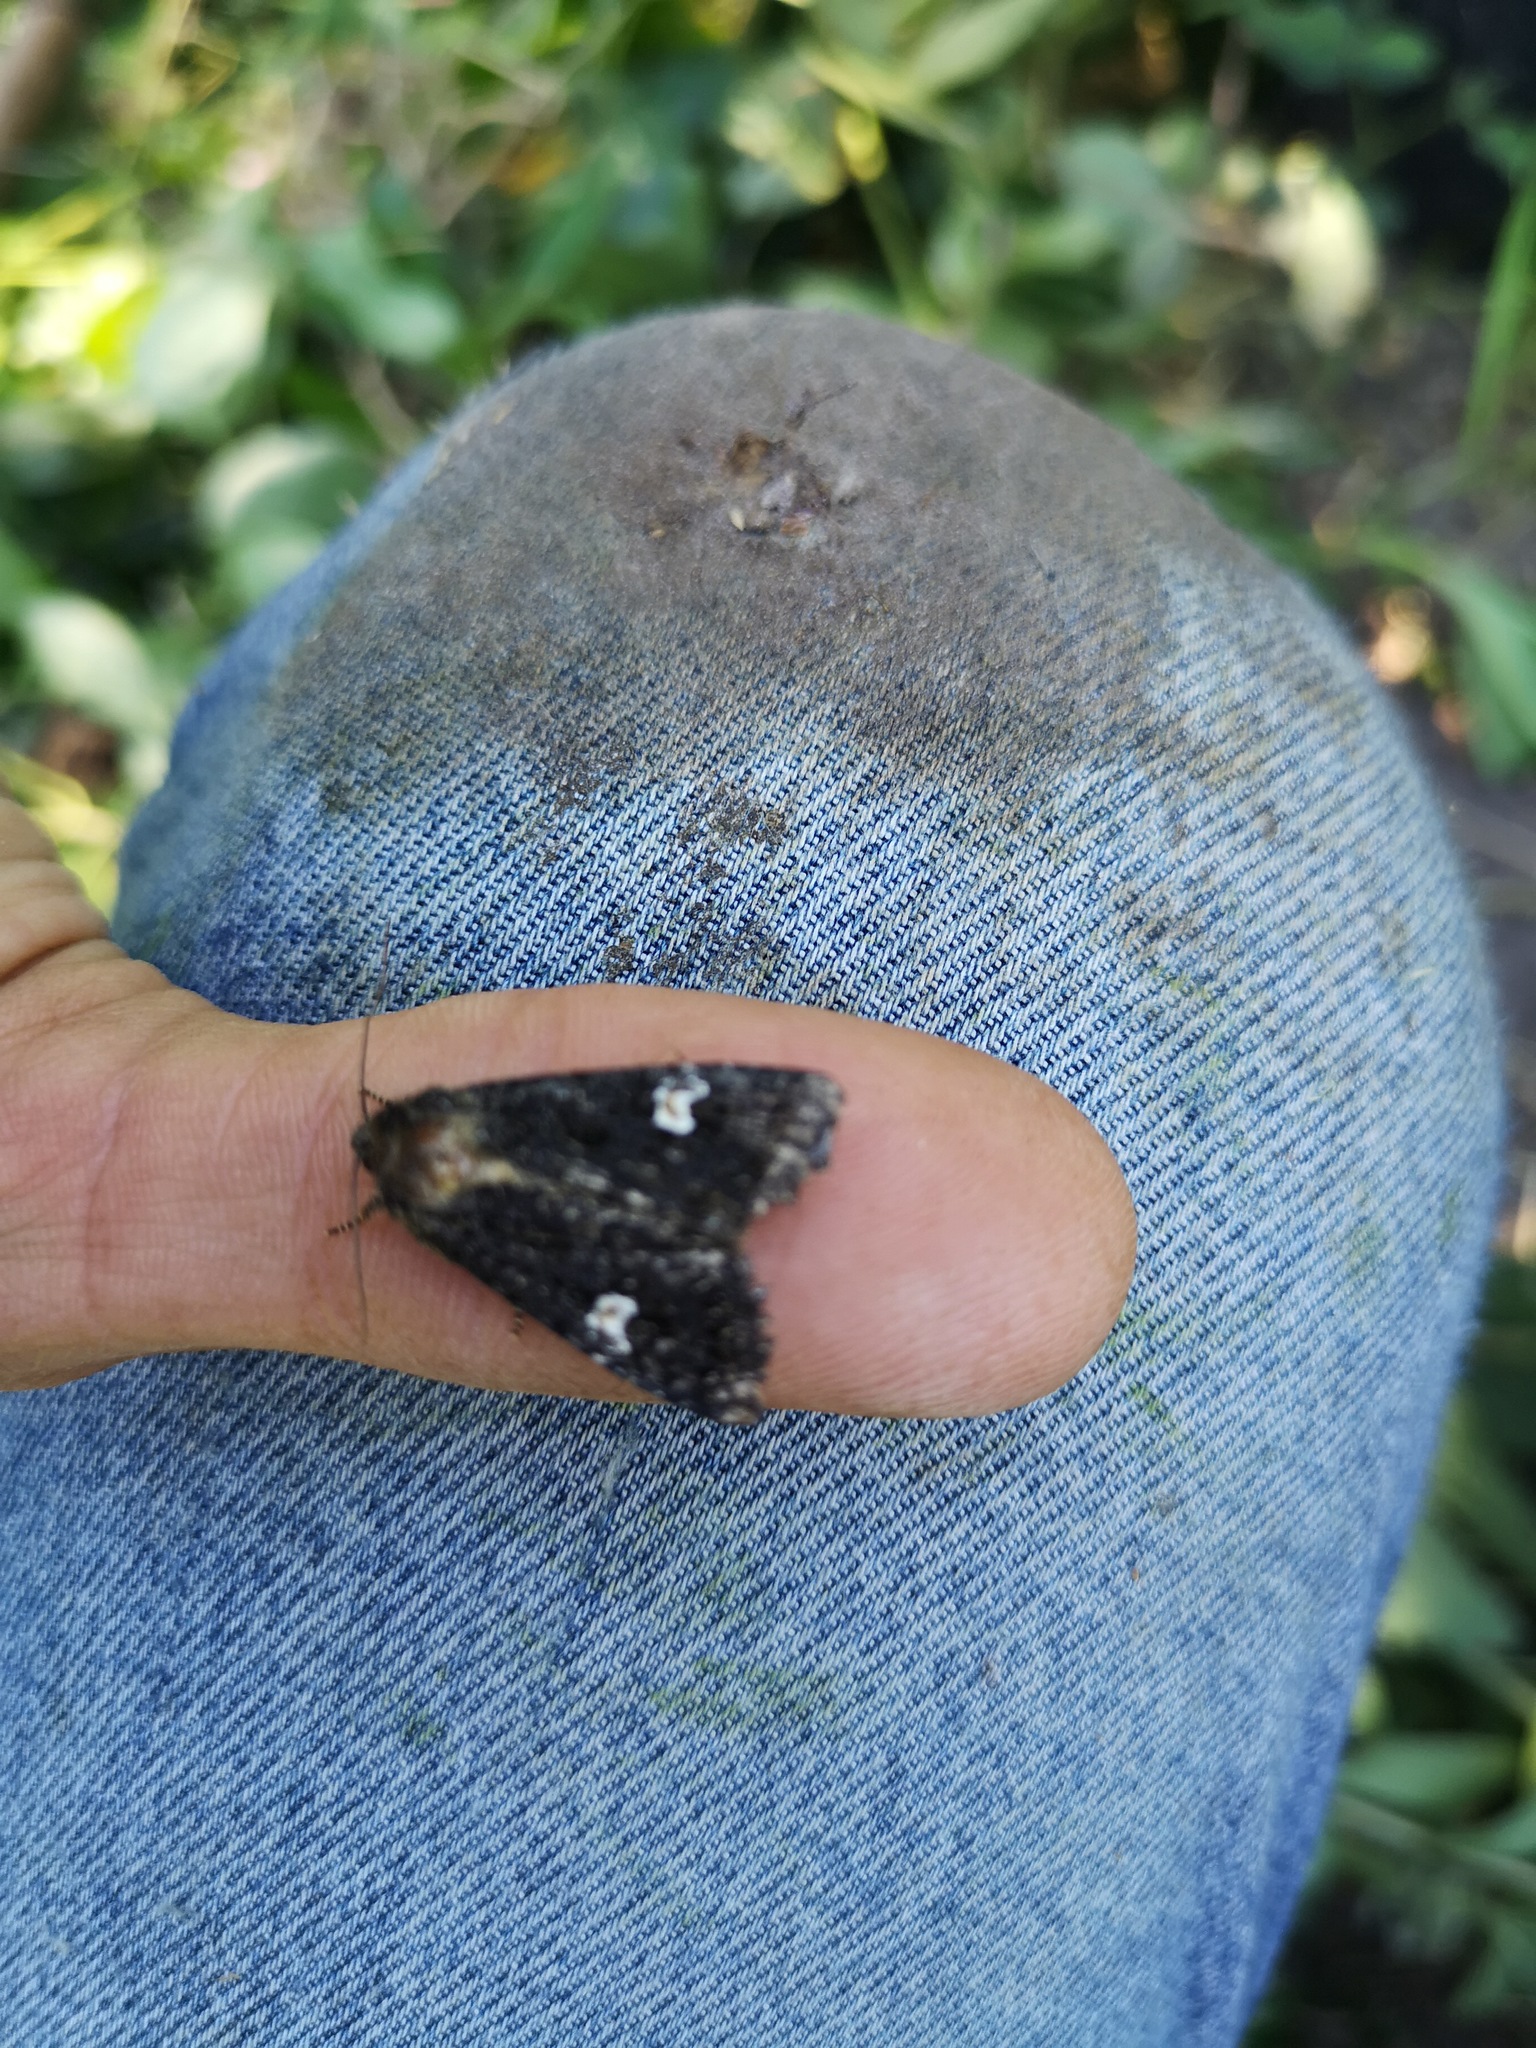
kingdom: Animalia
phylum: Arthropoda
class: Insecta
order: Lepidoptera
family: Noctuidae
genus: Melanchra
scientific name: Melanchra persicariae
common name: Dot moth
